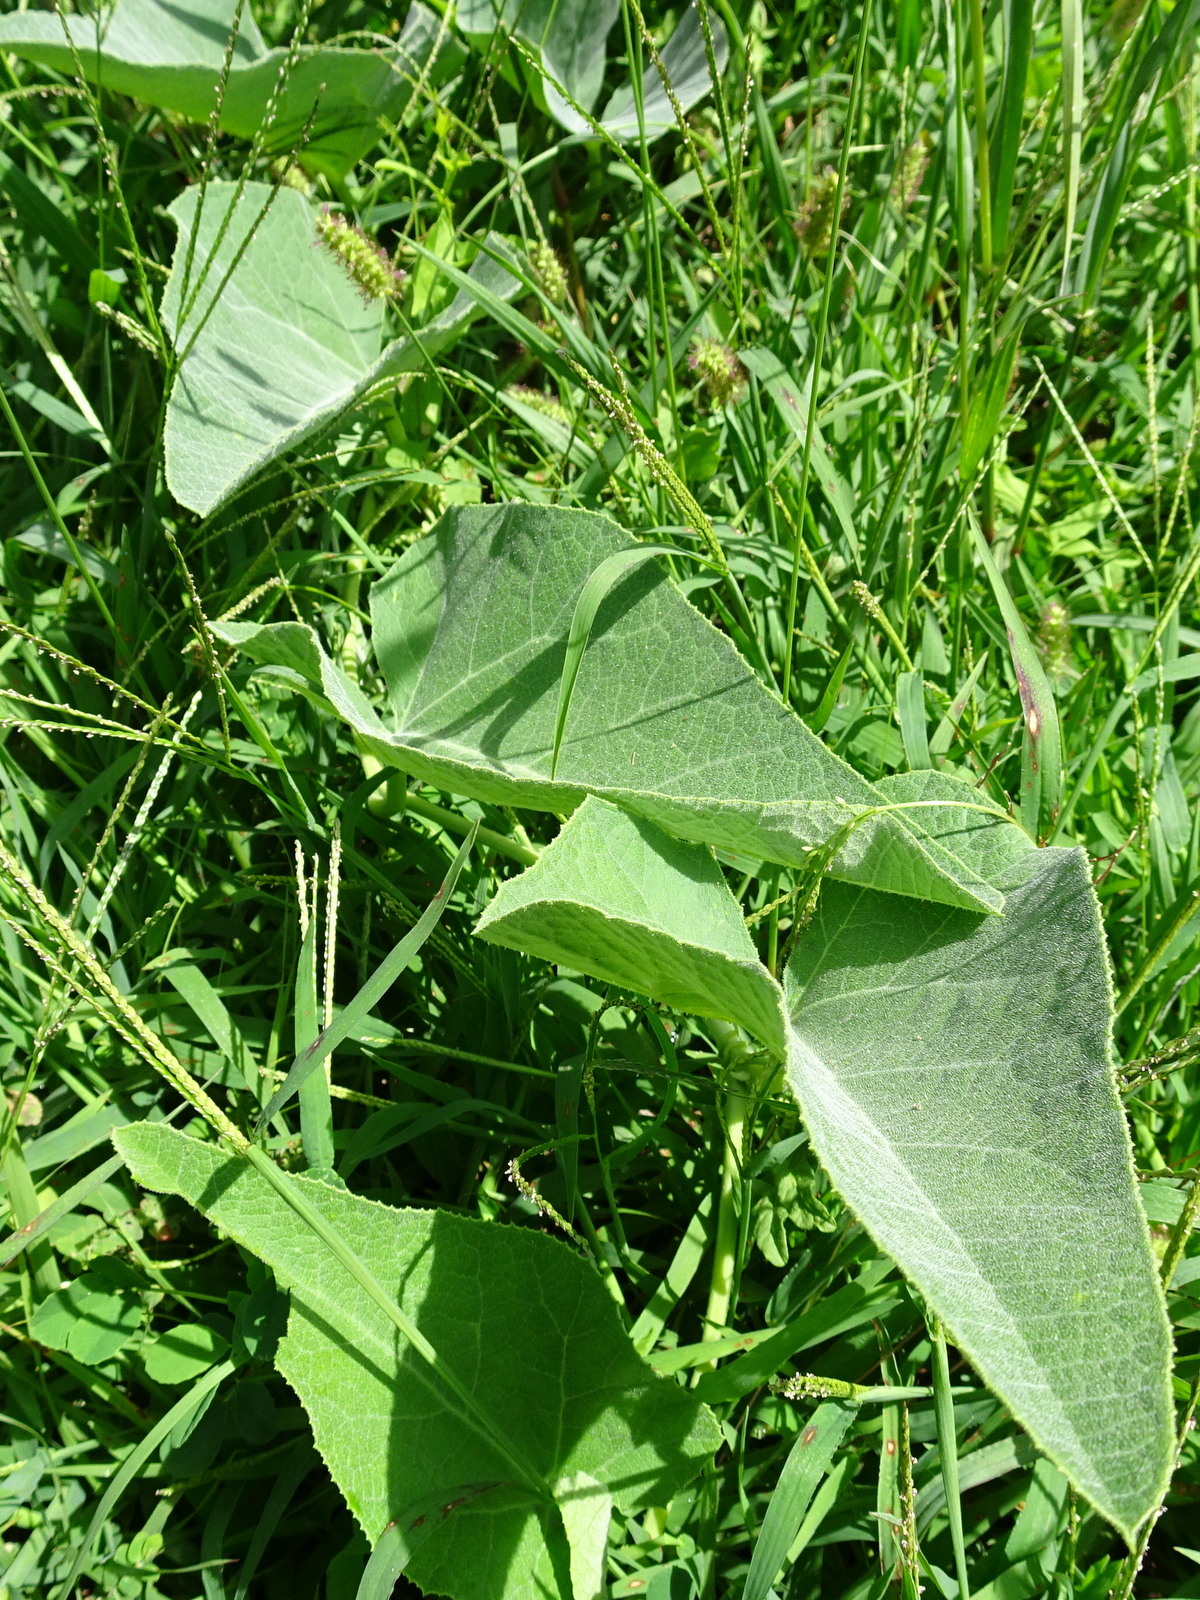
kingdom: Plantae
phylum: Tracheophyta
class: Magnoliopsida
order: Cucurbitales
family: Cucurbitaceae
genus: Cucurbita
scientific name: Cucurbita foetidissima
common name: Buffalo gourd
